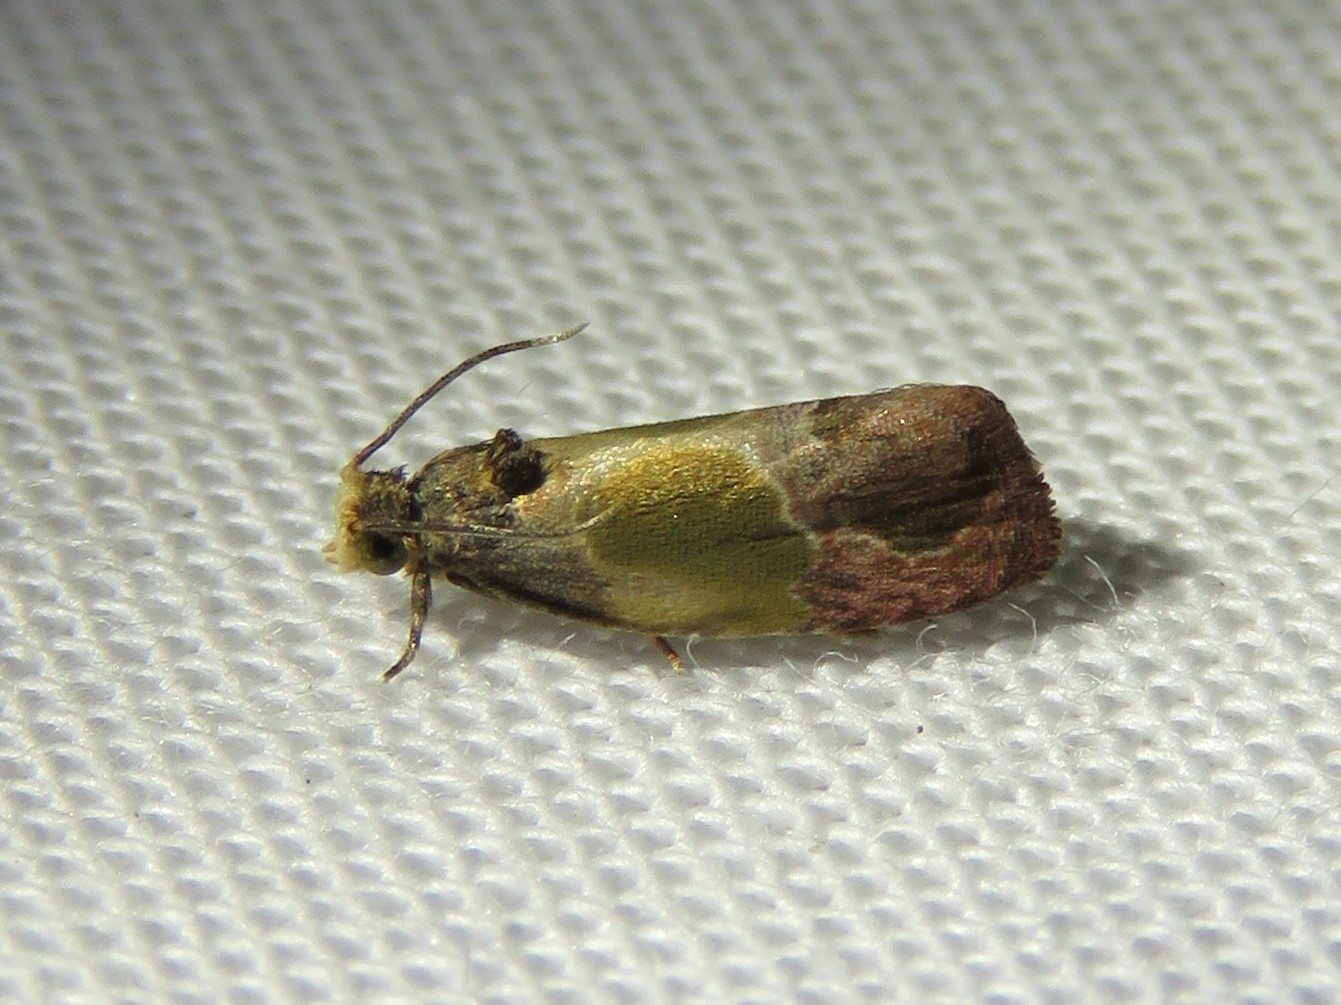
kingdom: Animalia
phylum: Arthropoda
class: Insecta
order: Lepidoptera
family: Tortricidae
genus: Eumarozia
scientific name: Eumarozia malachitana
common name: Sculptured moth
